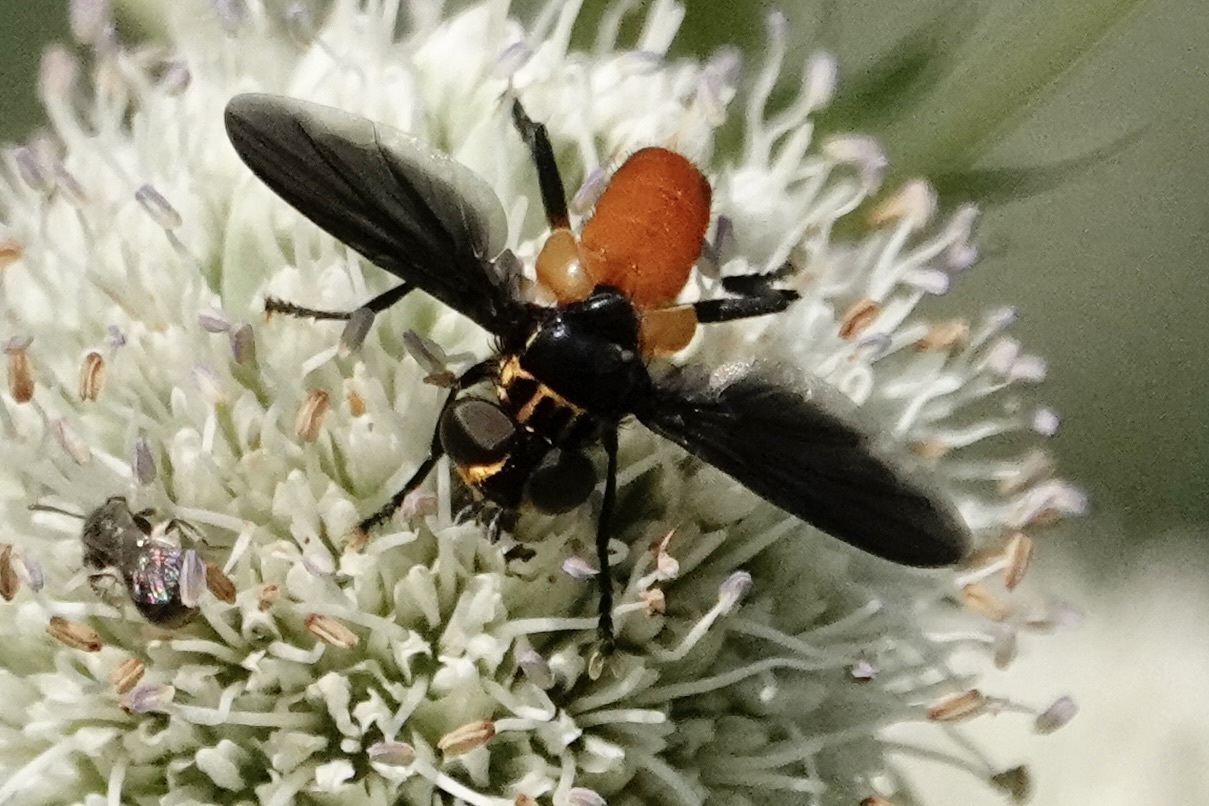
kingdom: Animalia
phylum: Arthropoda
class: Insecta
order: Diptera
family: Tachinidae
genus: Trichopoda
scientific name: Trichopoda pennipes
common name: Tachinid fly
